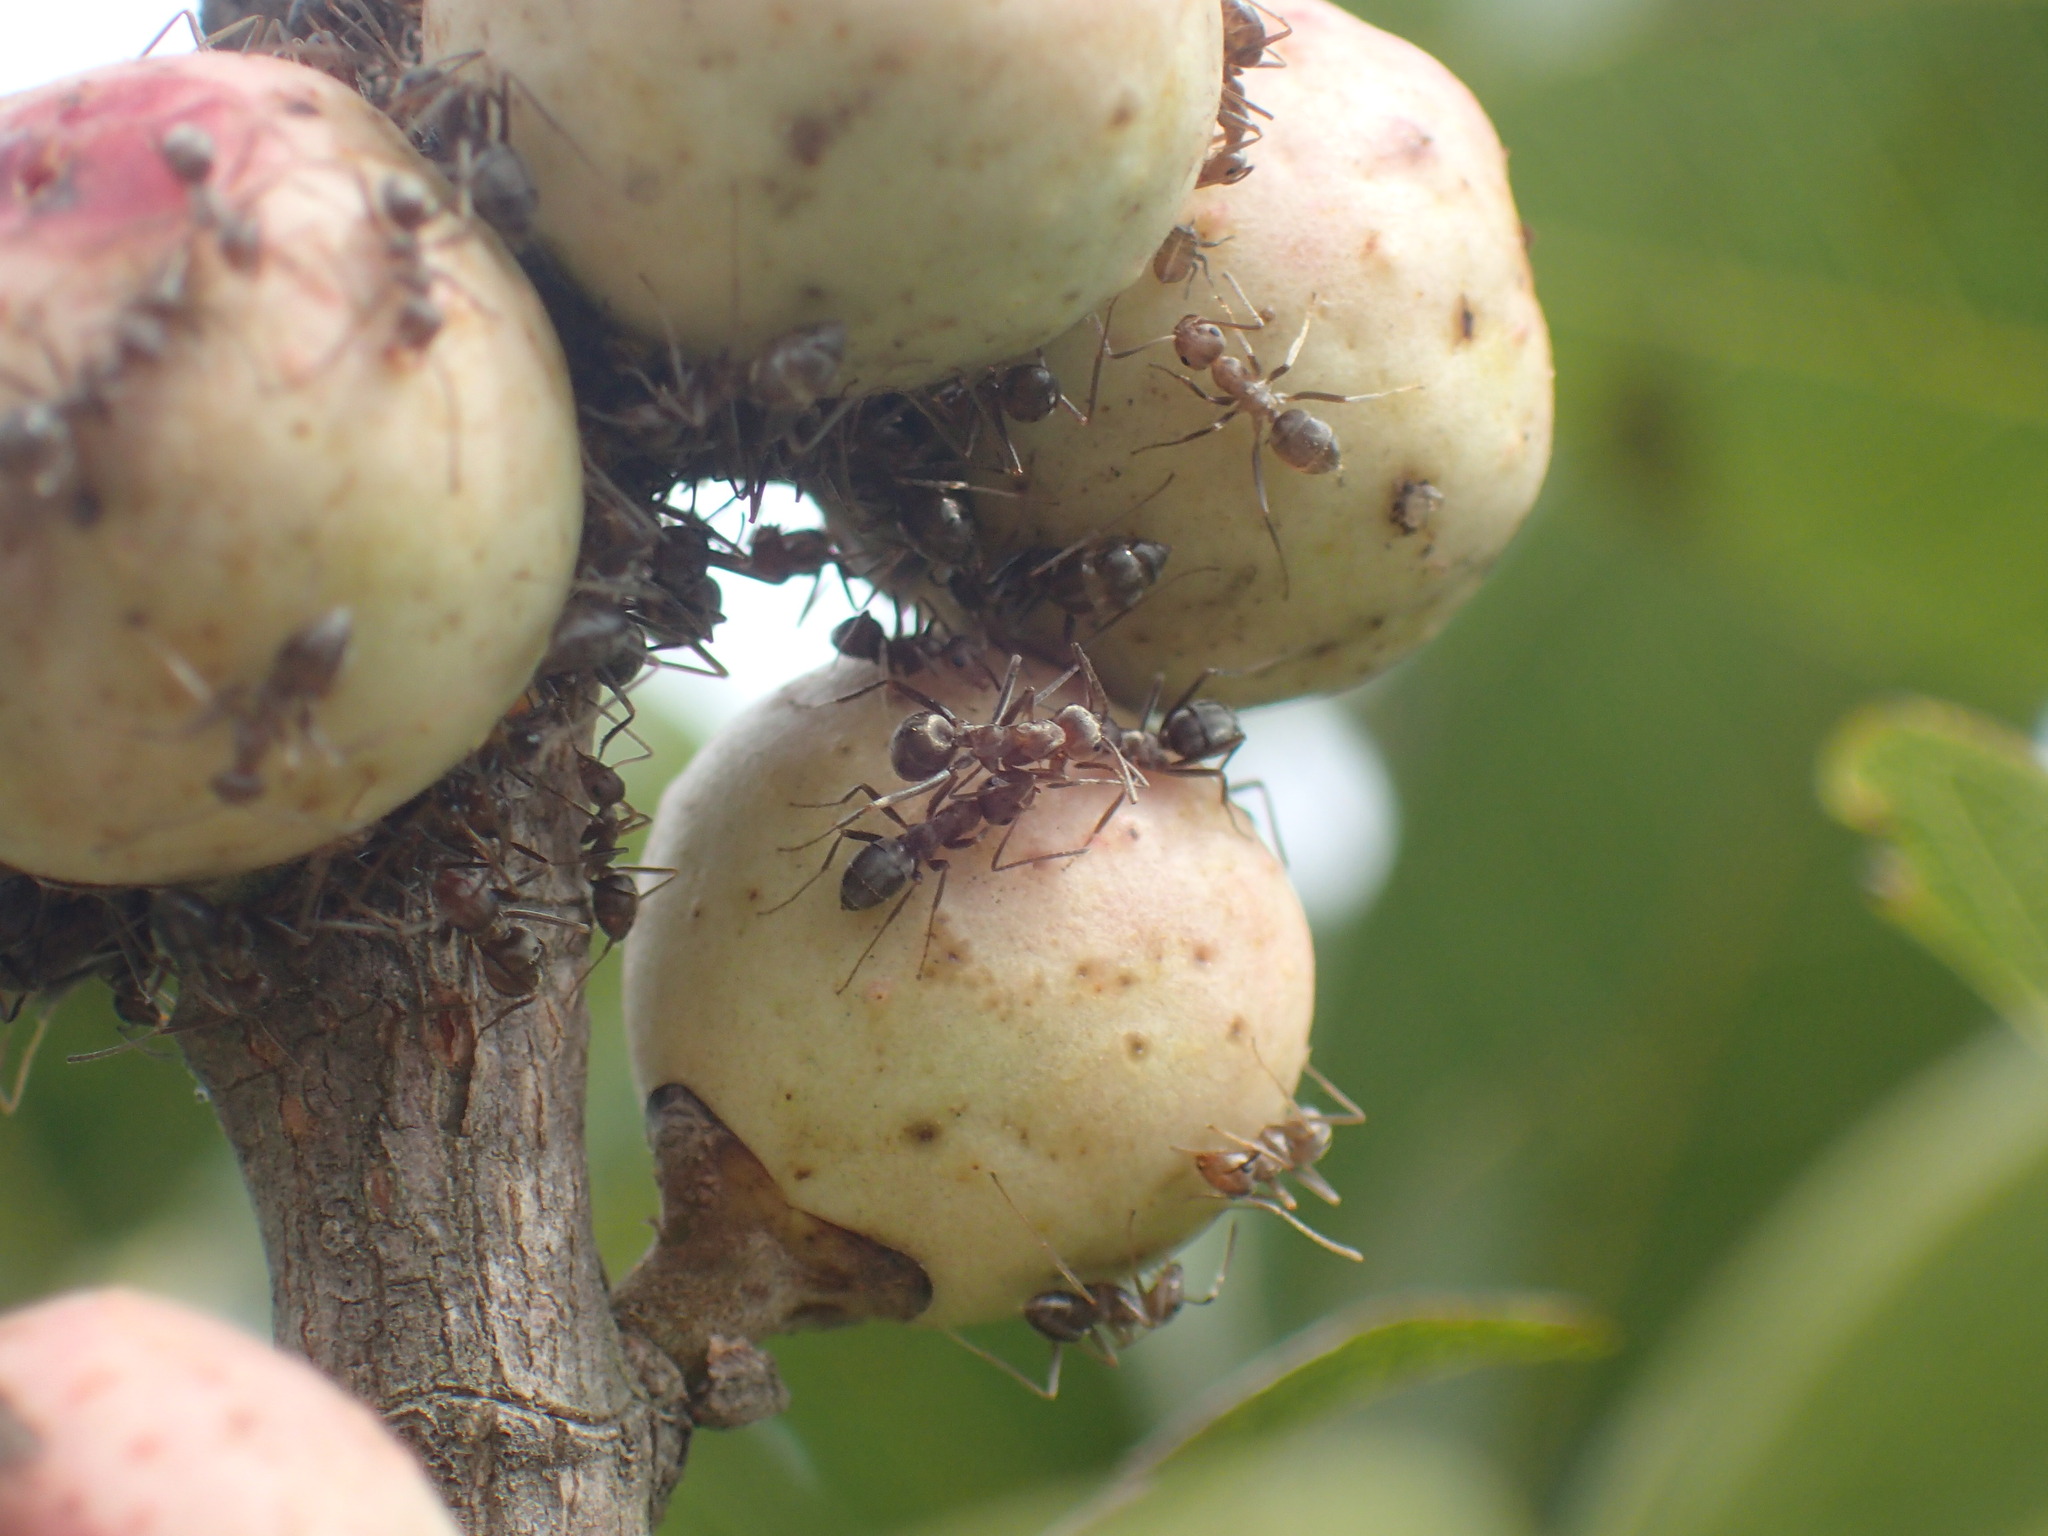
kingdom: Animalia
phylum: Arthropoda
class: Insecta
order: Hymenoptera
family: Formicidae
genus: Anoplolepis
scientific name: Anoplolepis custodiens
